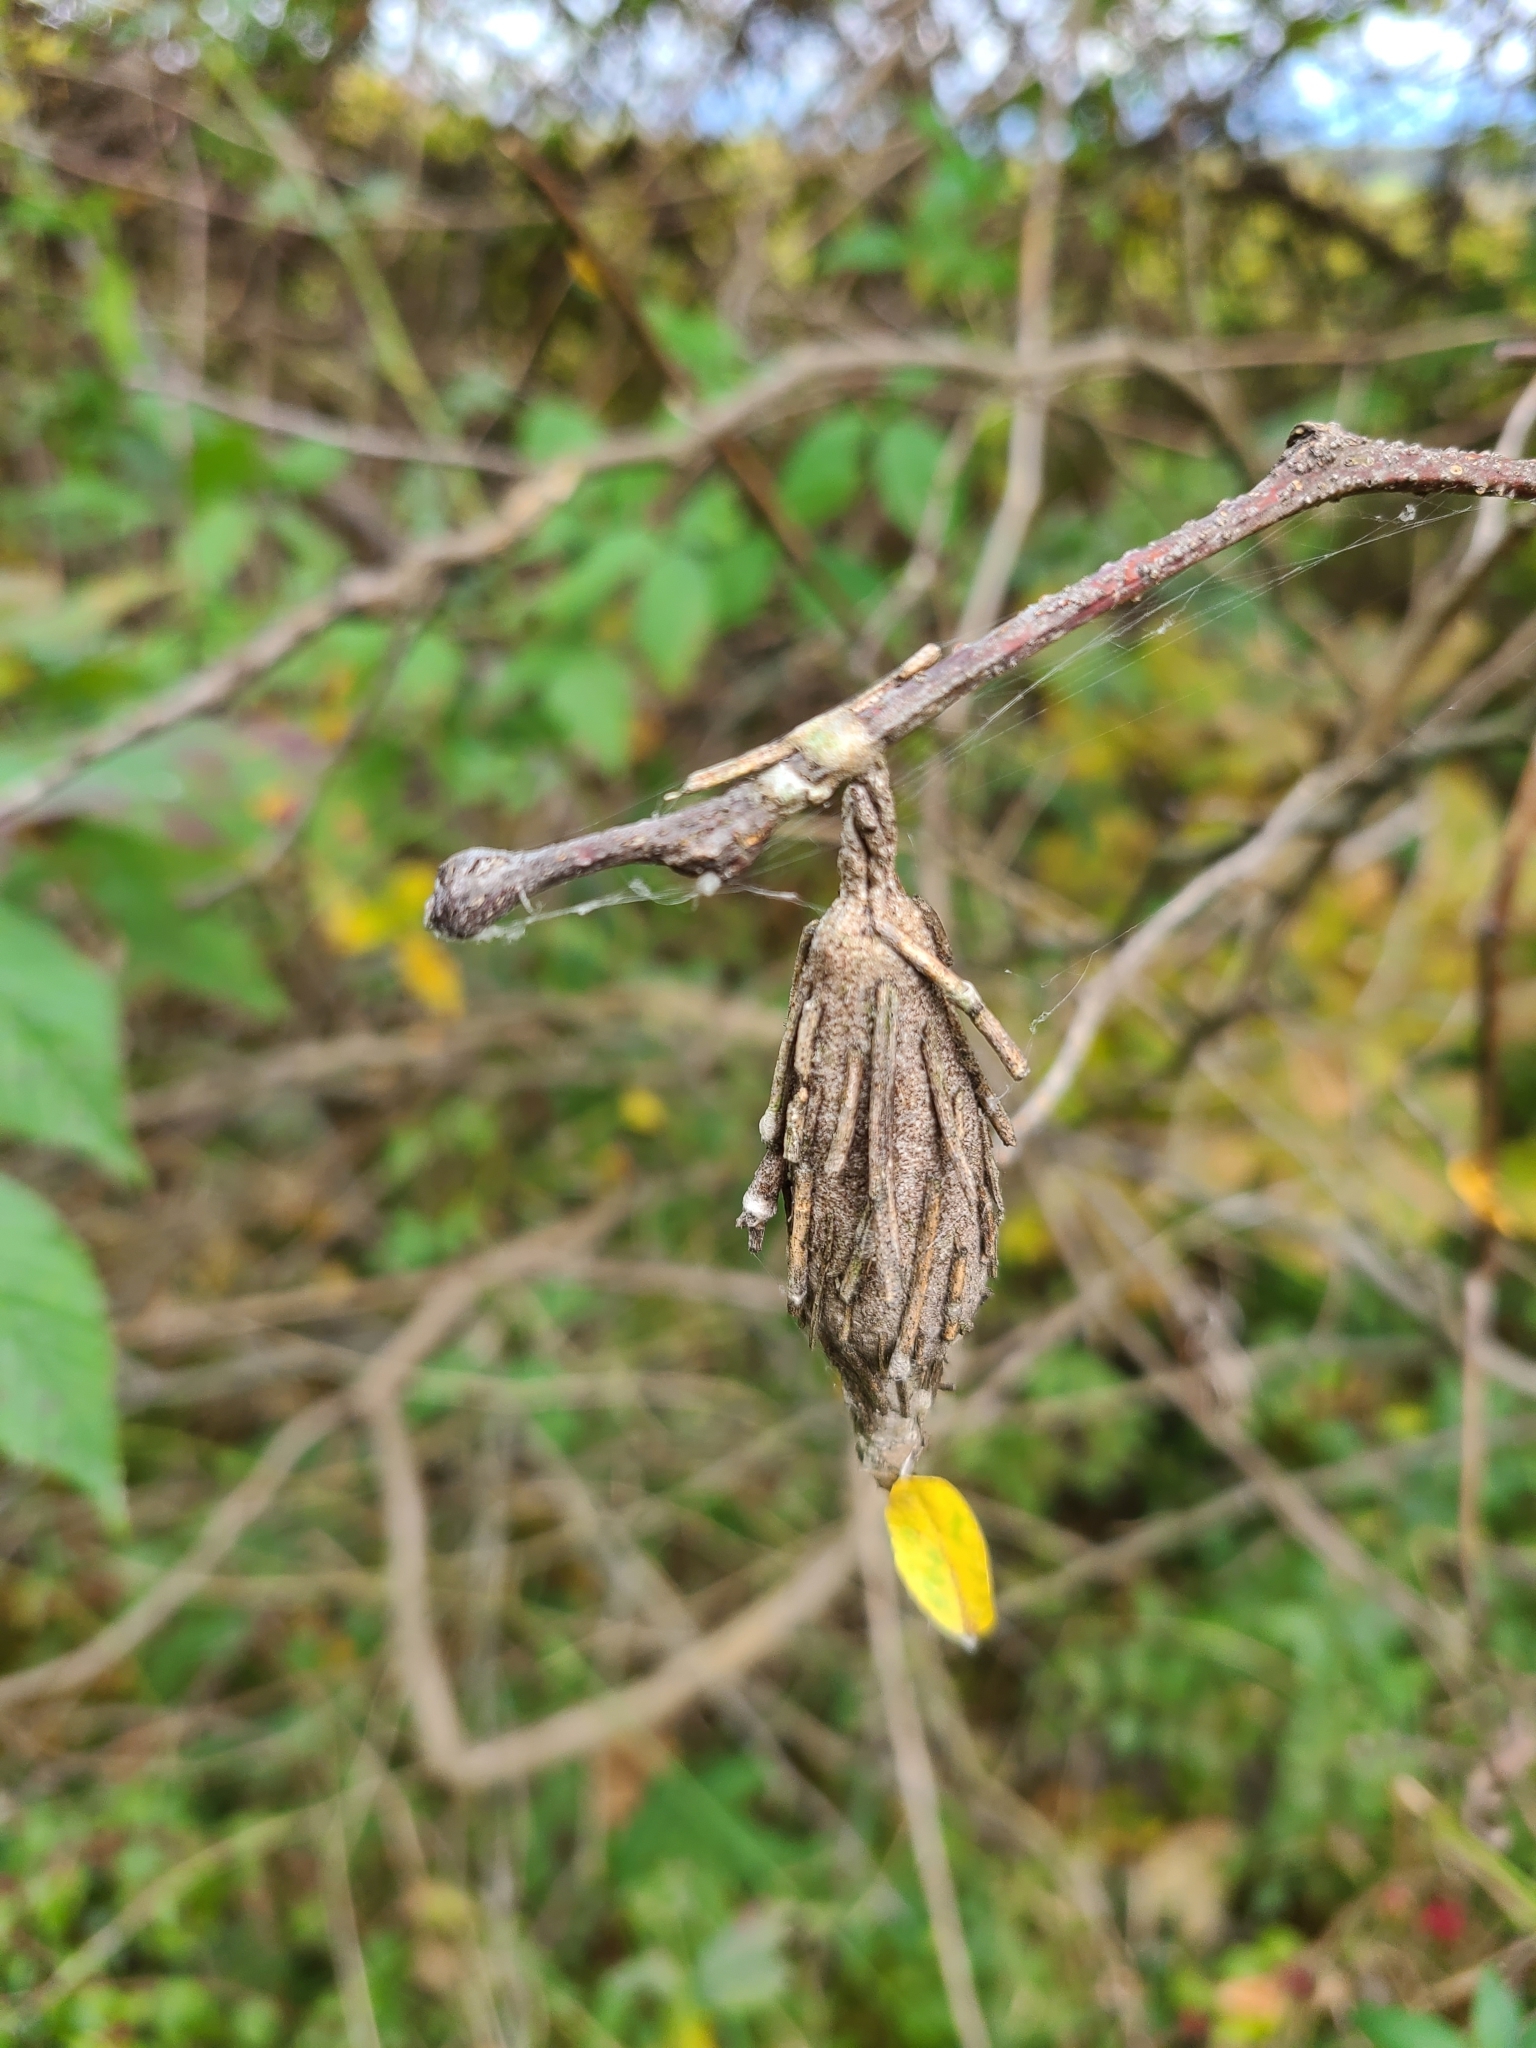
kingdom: Animalia
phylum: Arthropoda
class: Insecta
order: Lepidoptera
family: Psychidae
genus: Thyridopteryx
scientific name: Thyridopteryx ephemeraeformis
